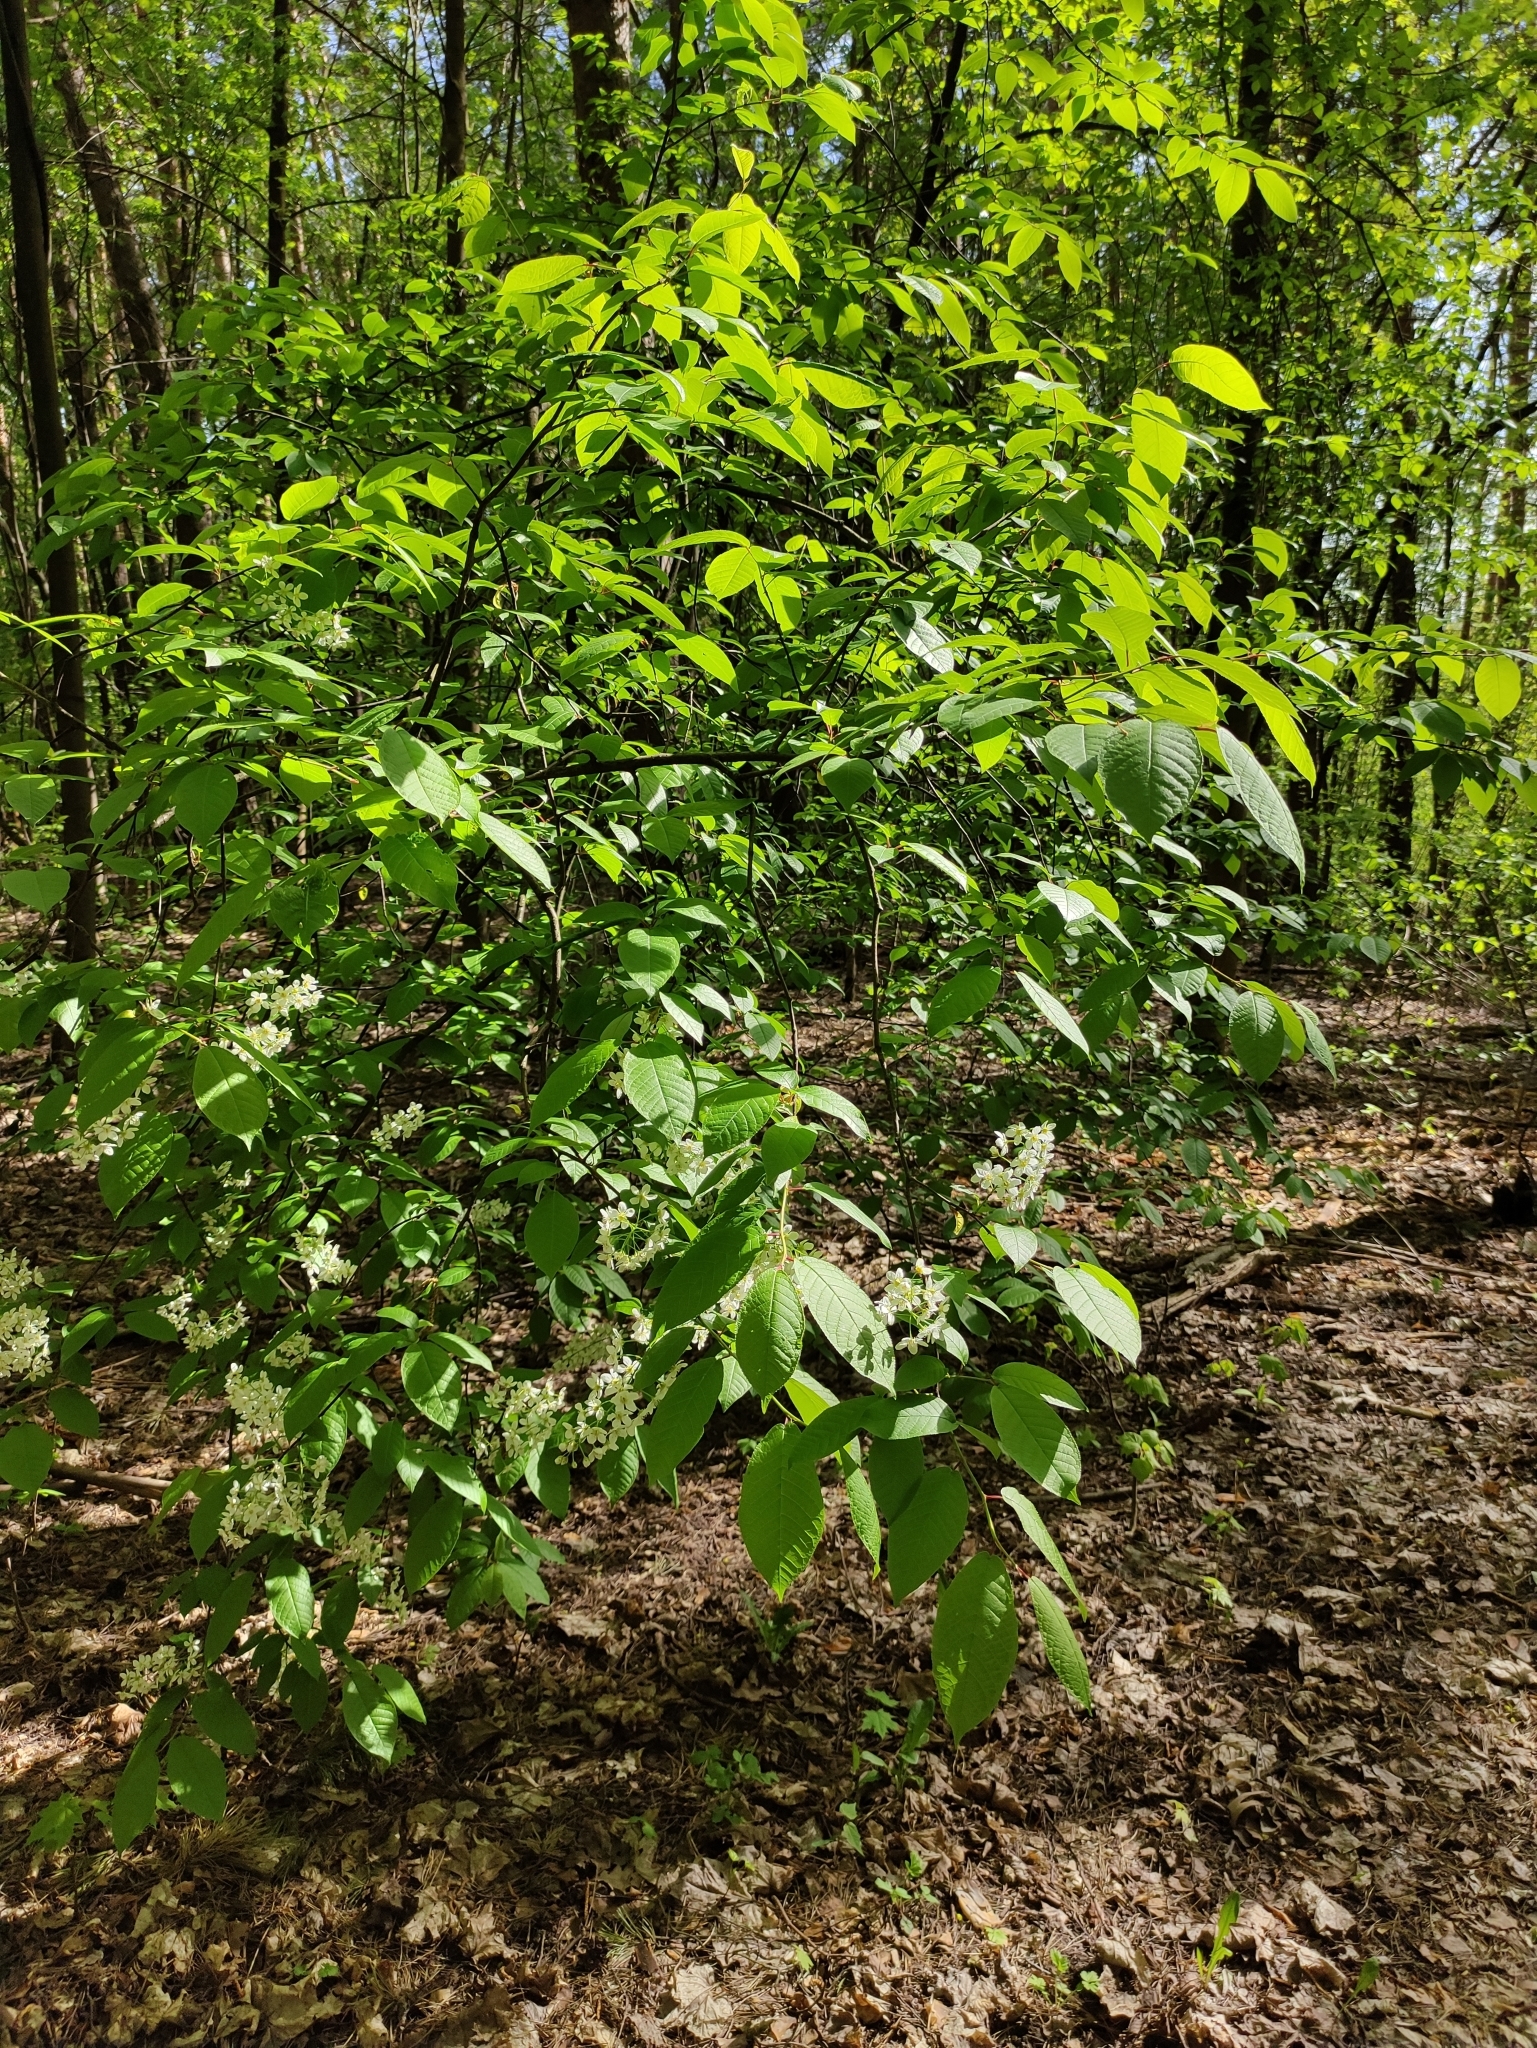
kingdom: Plantae
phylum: Tracheophyta
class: Magnoliopsida
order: Rosales
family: Rosaceae
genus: Prunus
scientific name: Prunus padus
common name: Bird cherry
